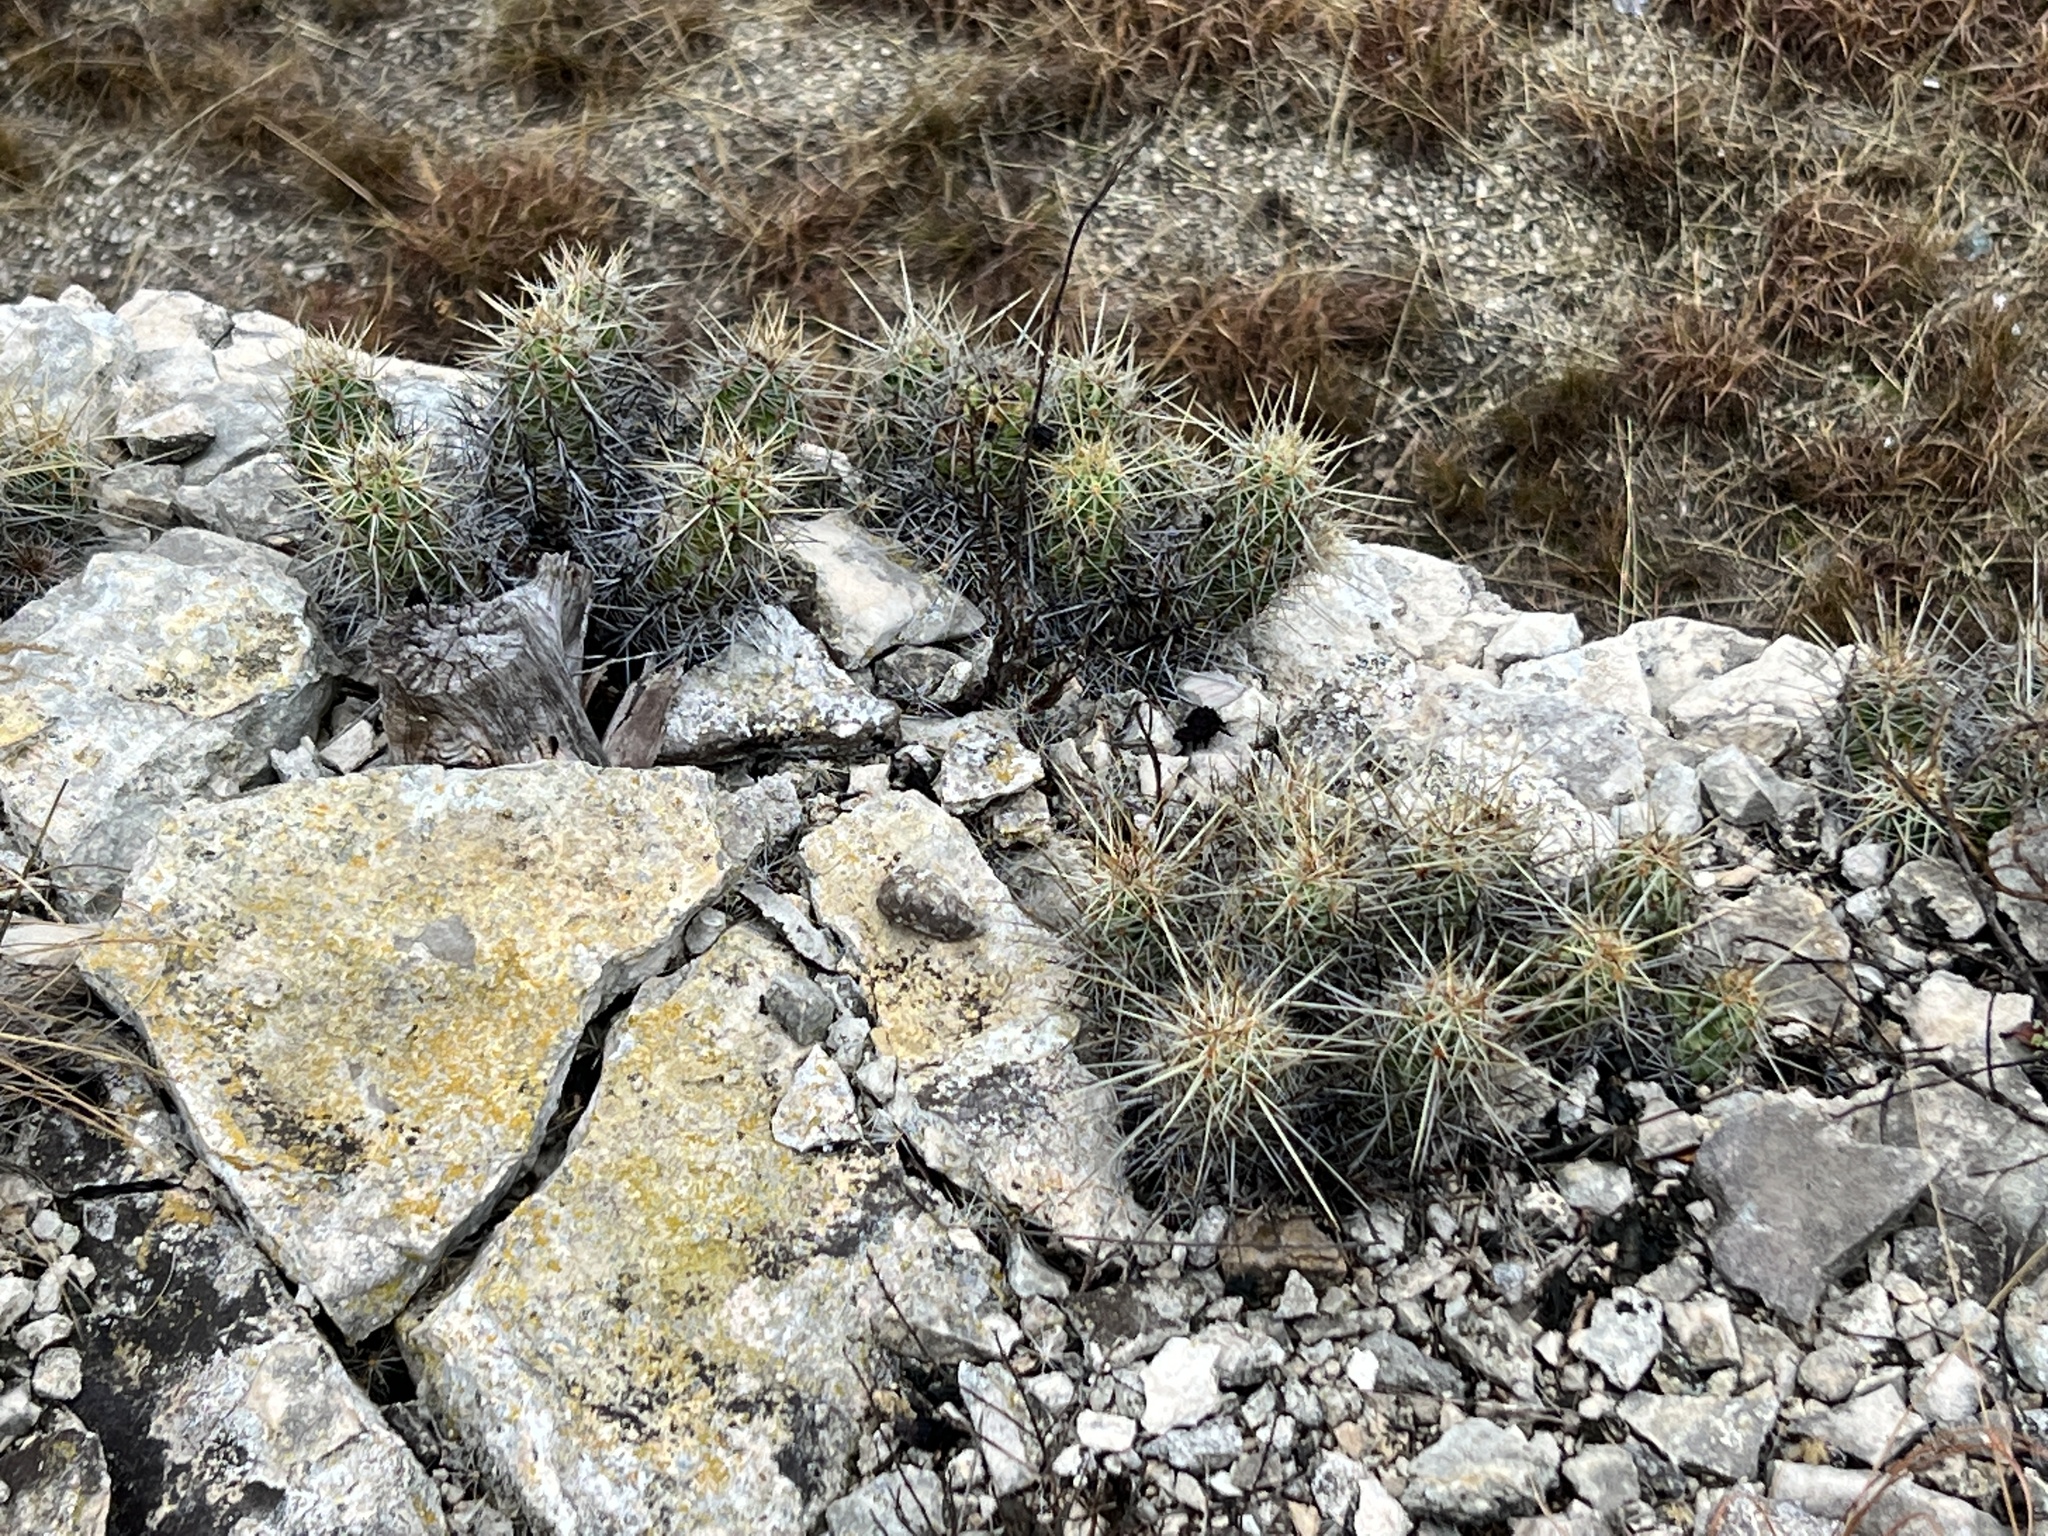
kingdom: Plantae
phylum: Tracheophyta
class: Magnoliopsida
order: Caryophyllales
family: Cactaceae
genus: Echinocereus
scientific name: Echinocereus enneacanthus
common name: Pitaya
